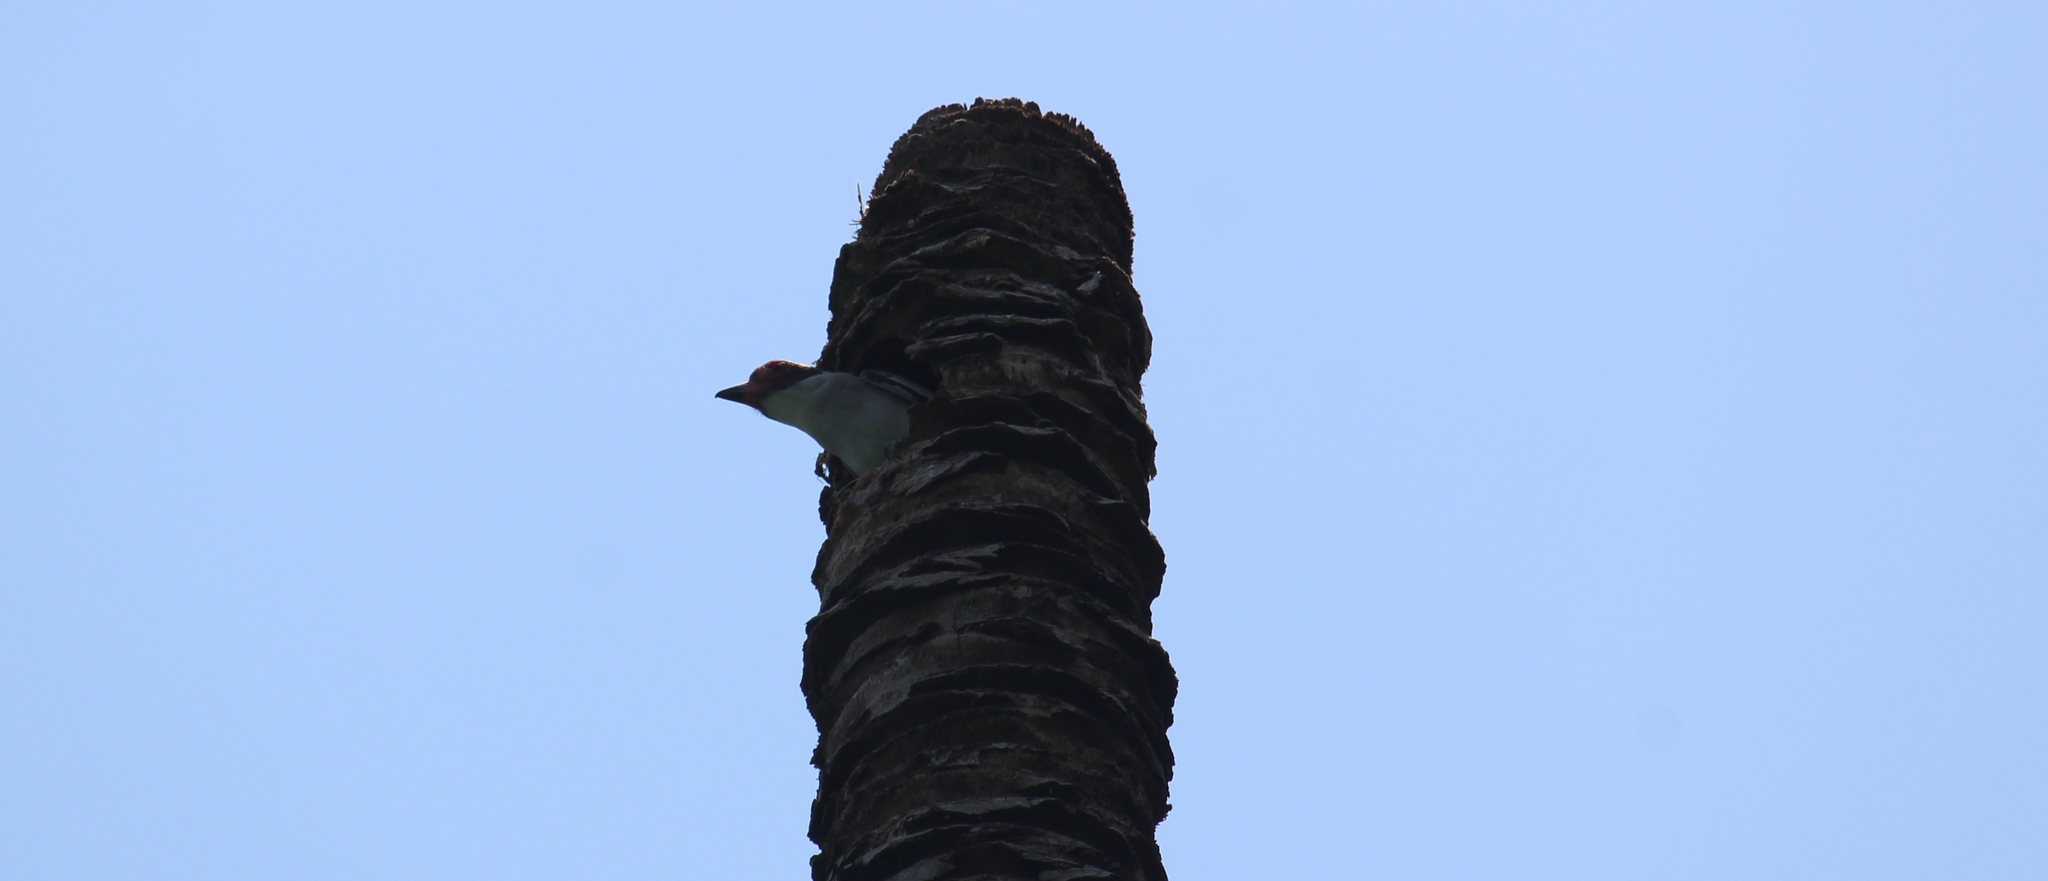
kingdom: Animalia
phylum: Chordata
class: Aves
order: Passeriformes
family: Cotingidae
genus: Tityra
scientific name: Tityra semifasciata
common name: Masked tityra
